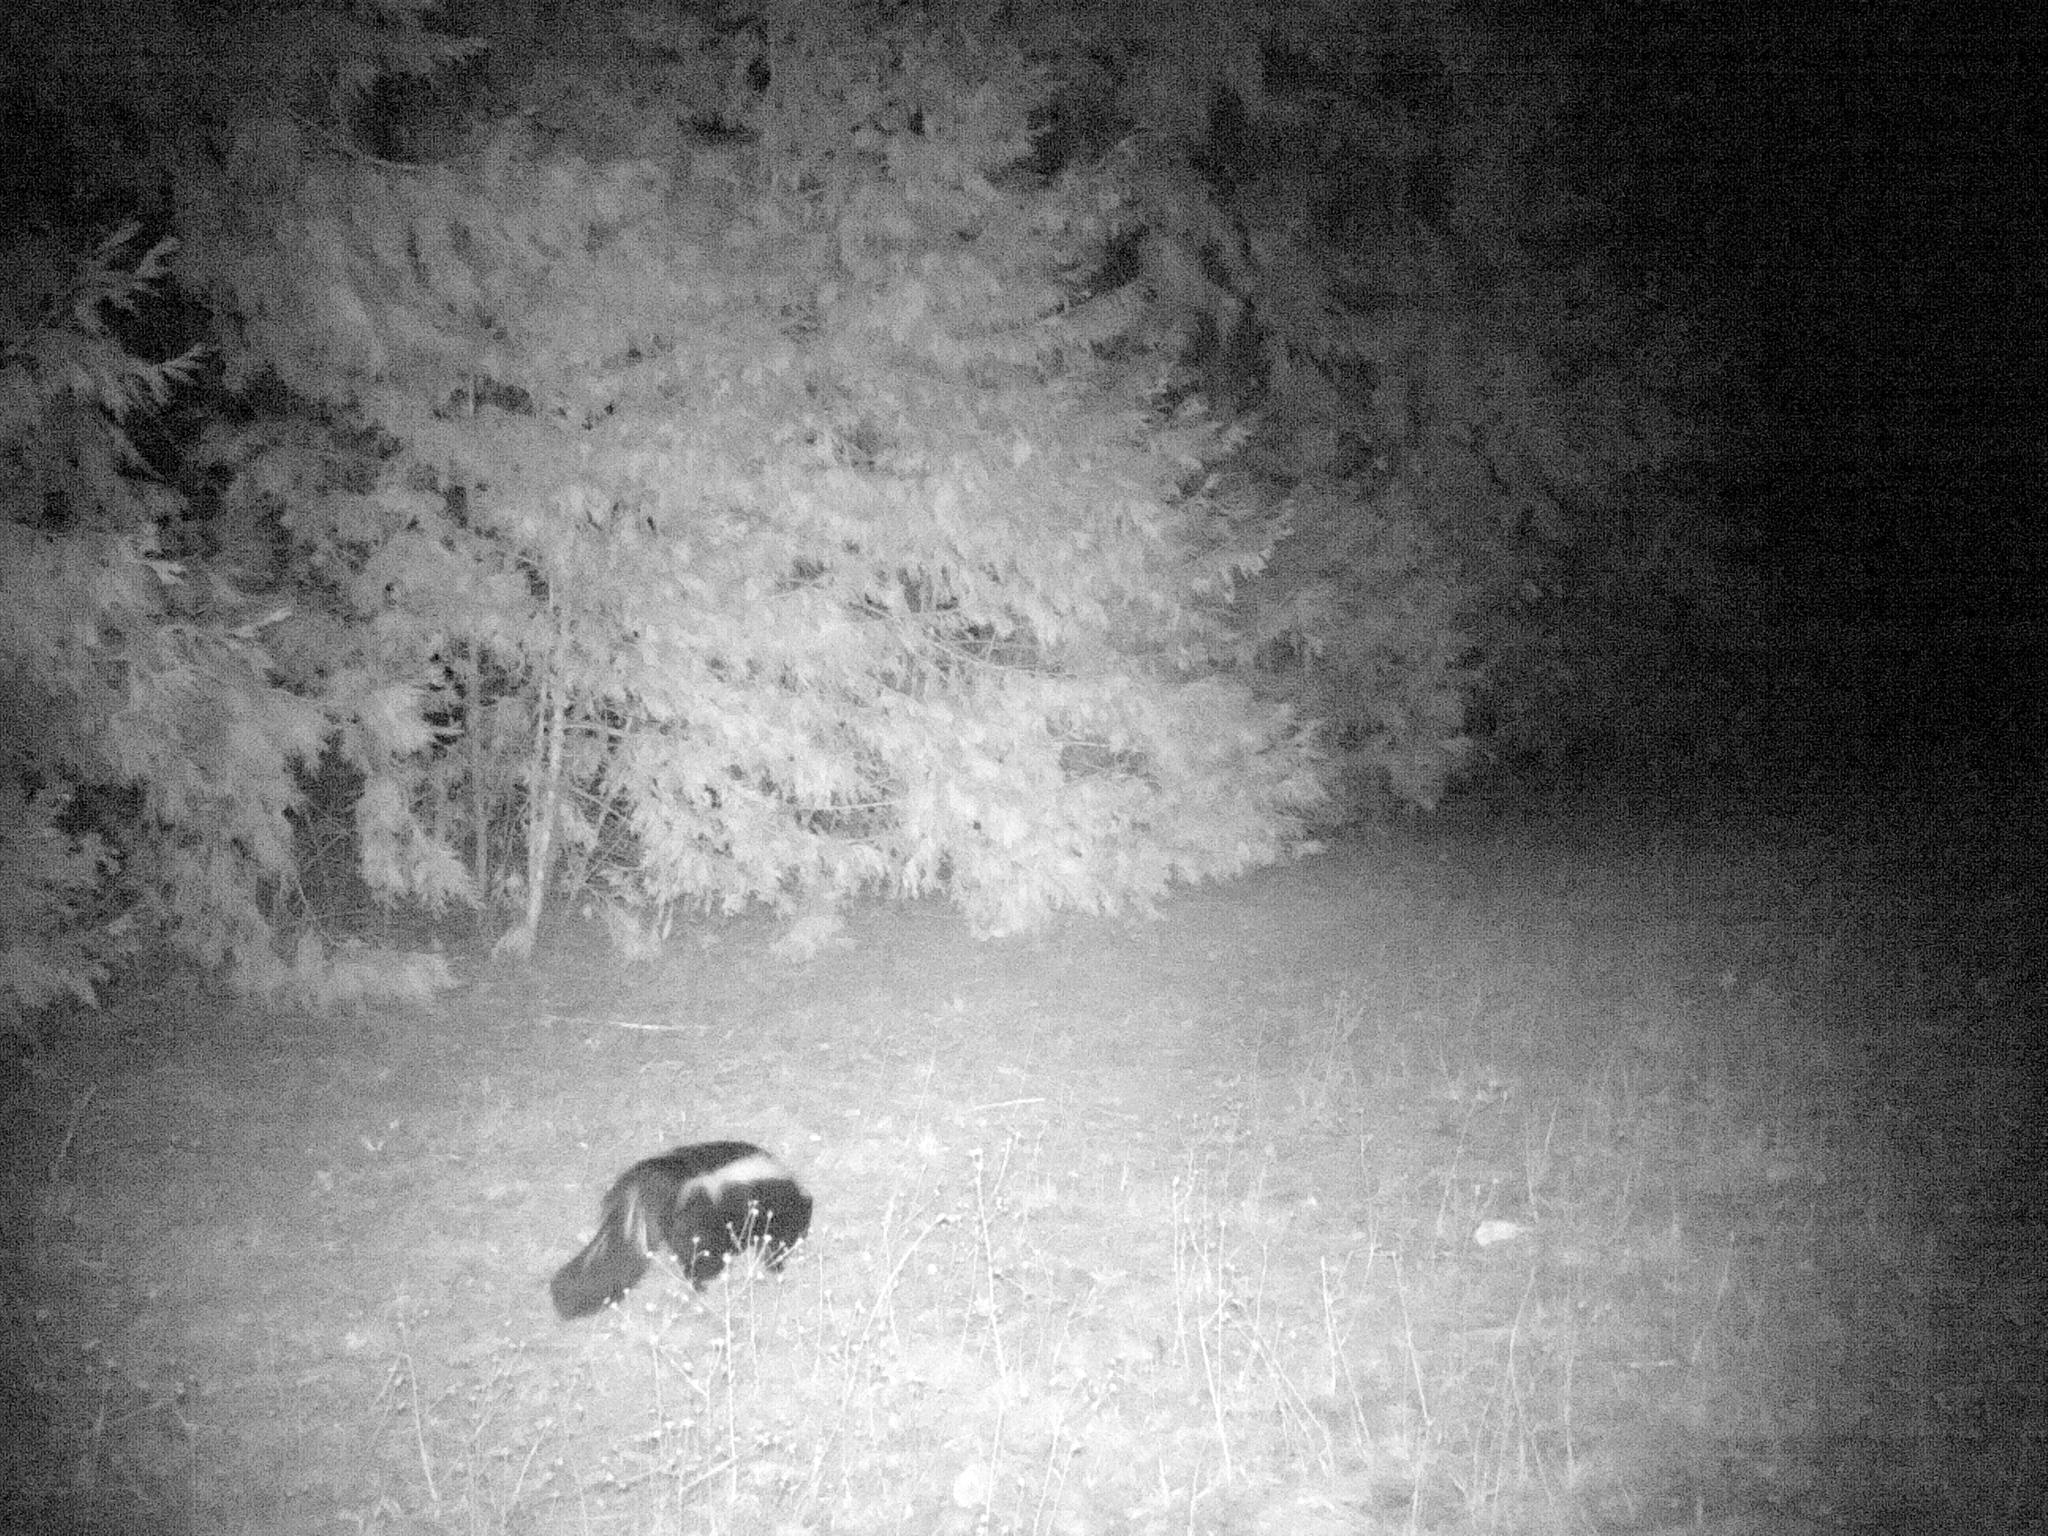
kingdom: Animalia
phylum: Chordata
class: Mammalia
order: Carnivora
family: Mephitidae
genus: Mephitis
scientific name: Mephitis mephitis
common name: Striped skunk
